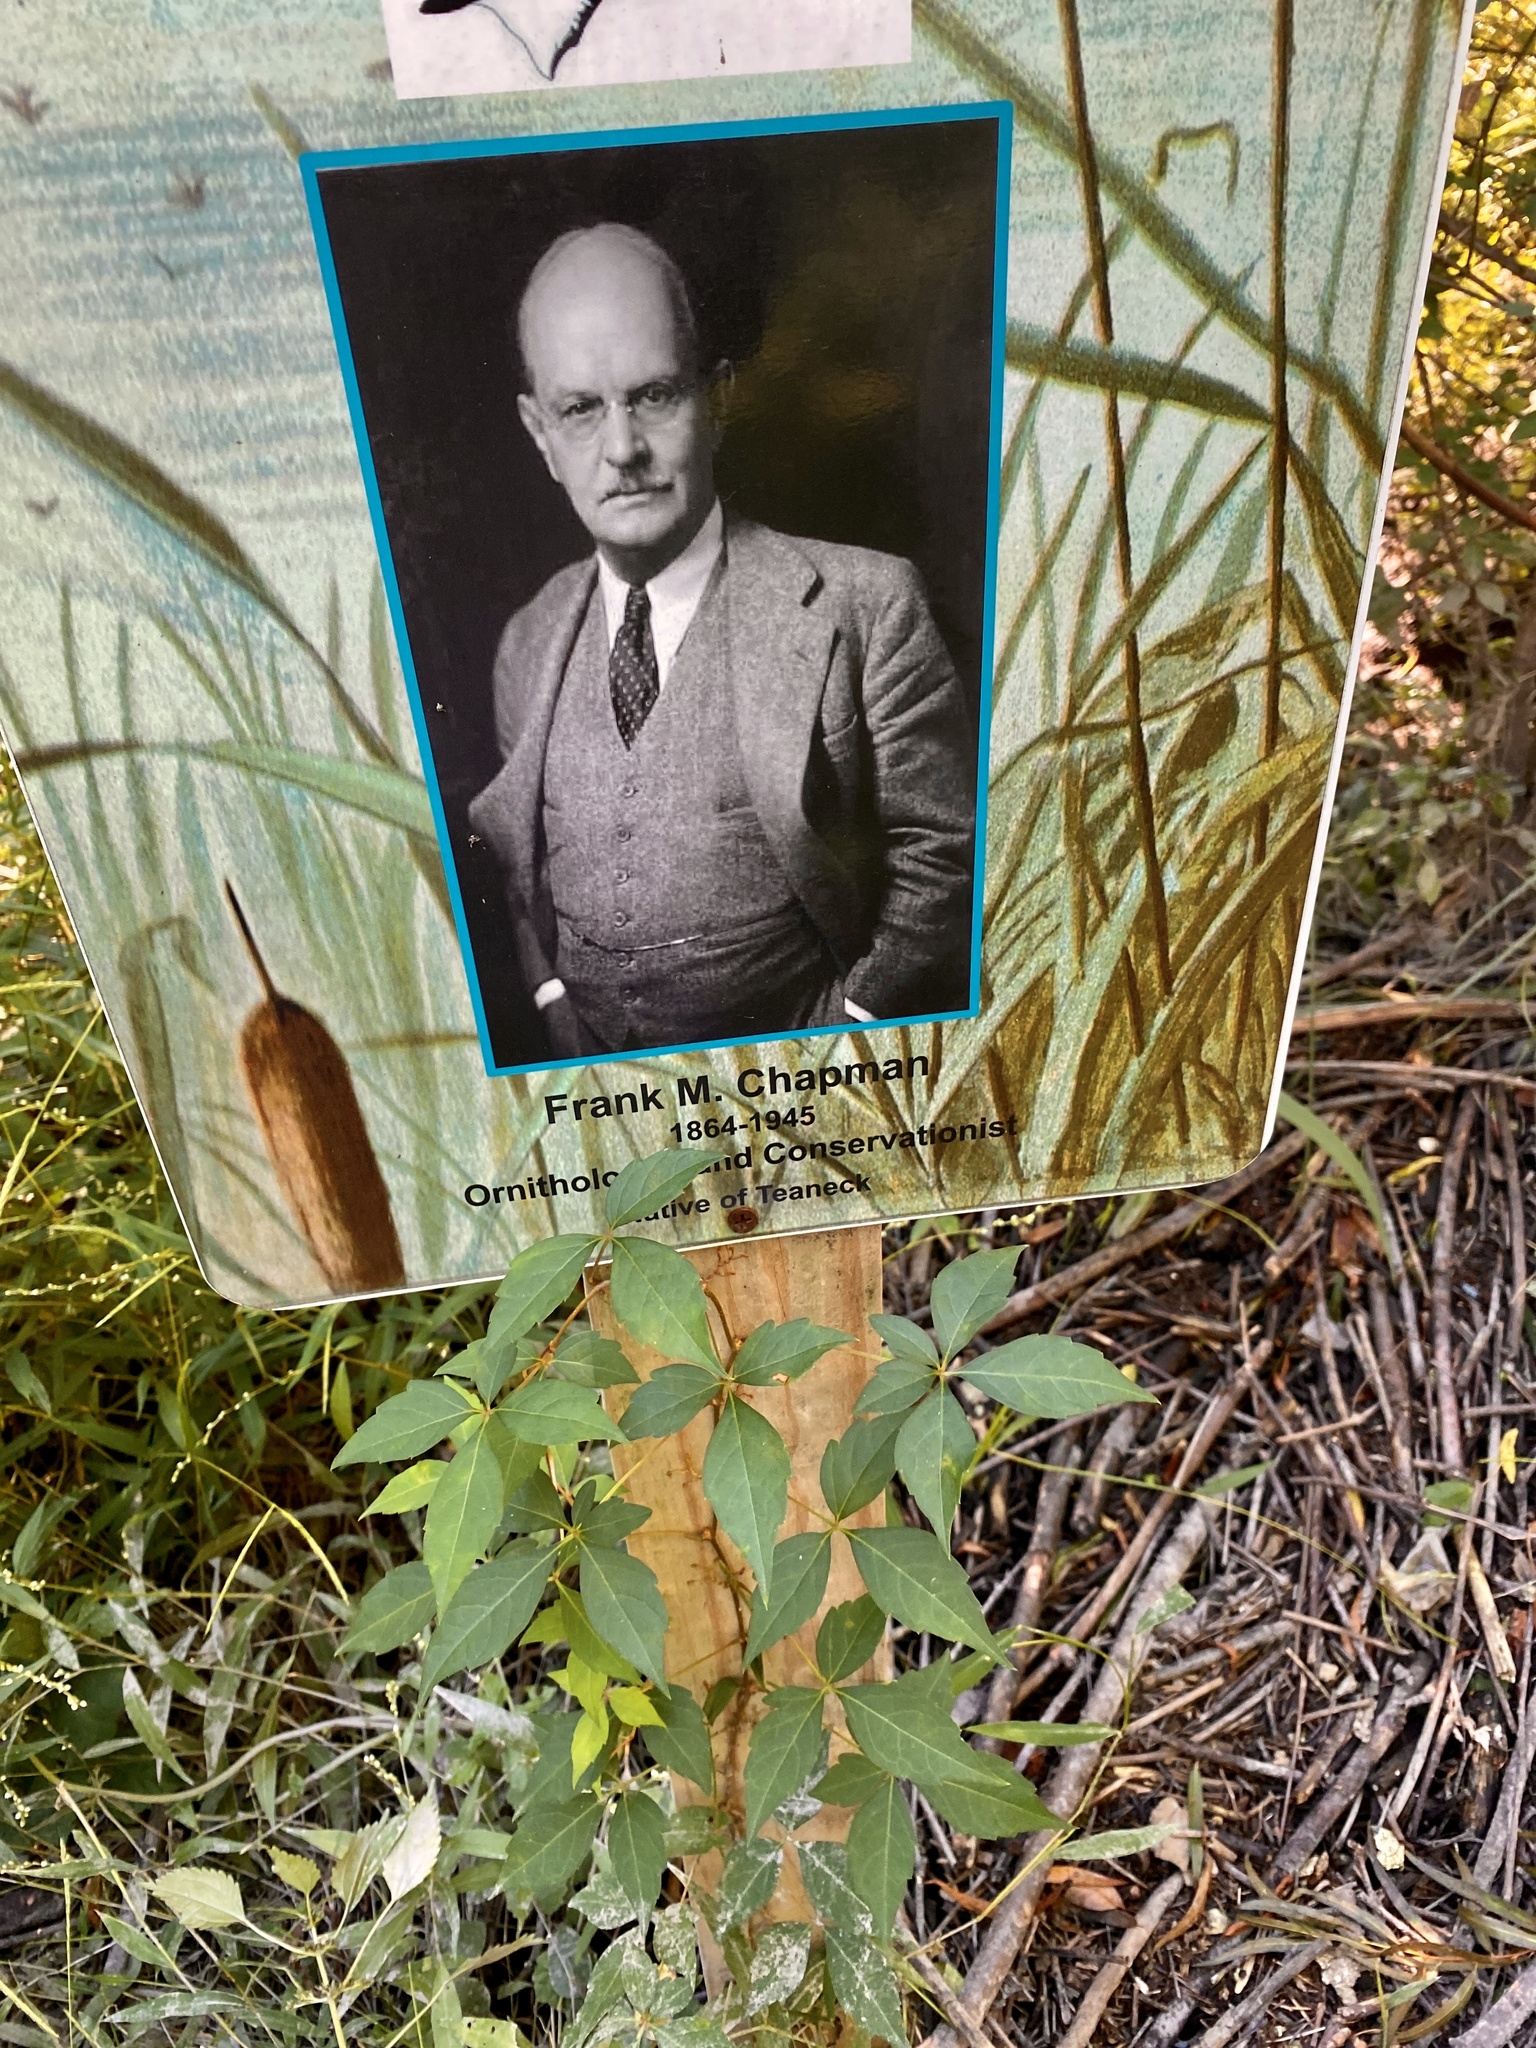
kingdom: Plantae
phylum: Tracheophyta
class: Magnoliopsida
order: Vitales
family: Vitaceae
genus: Parthenocissus
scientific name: Parthenocissus quinquefolia
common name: Virginia-creeper
